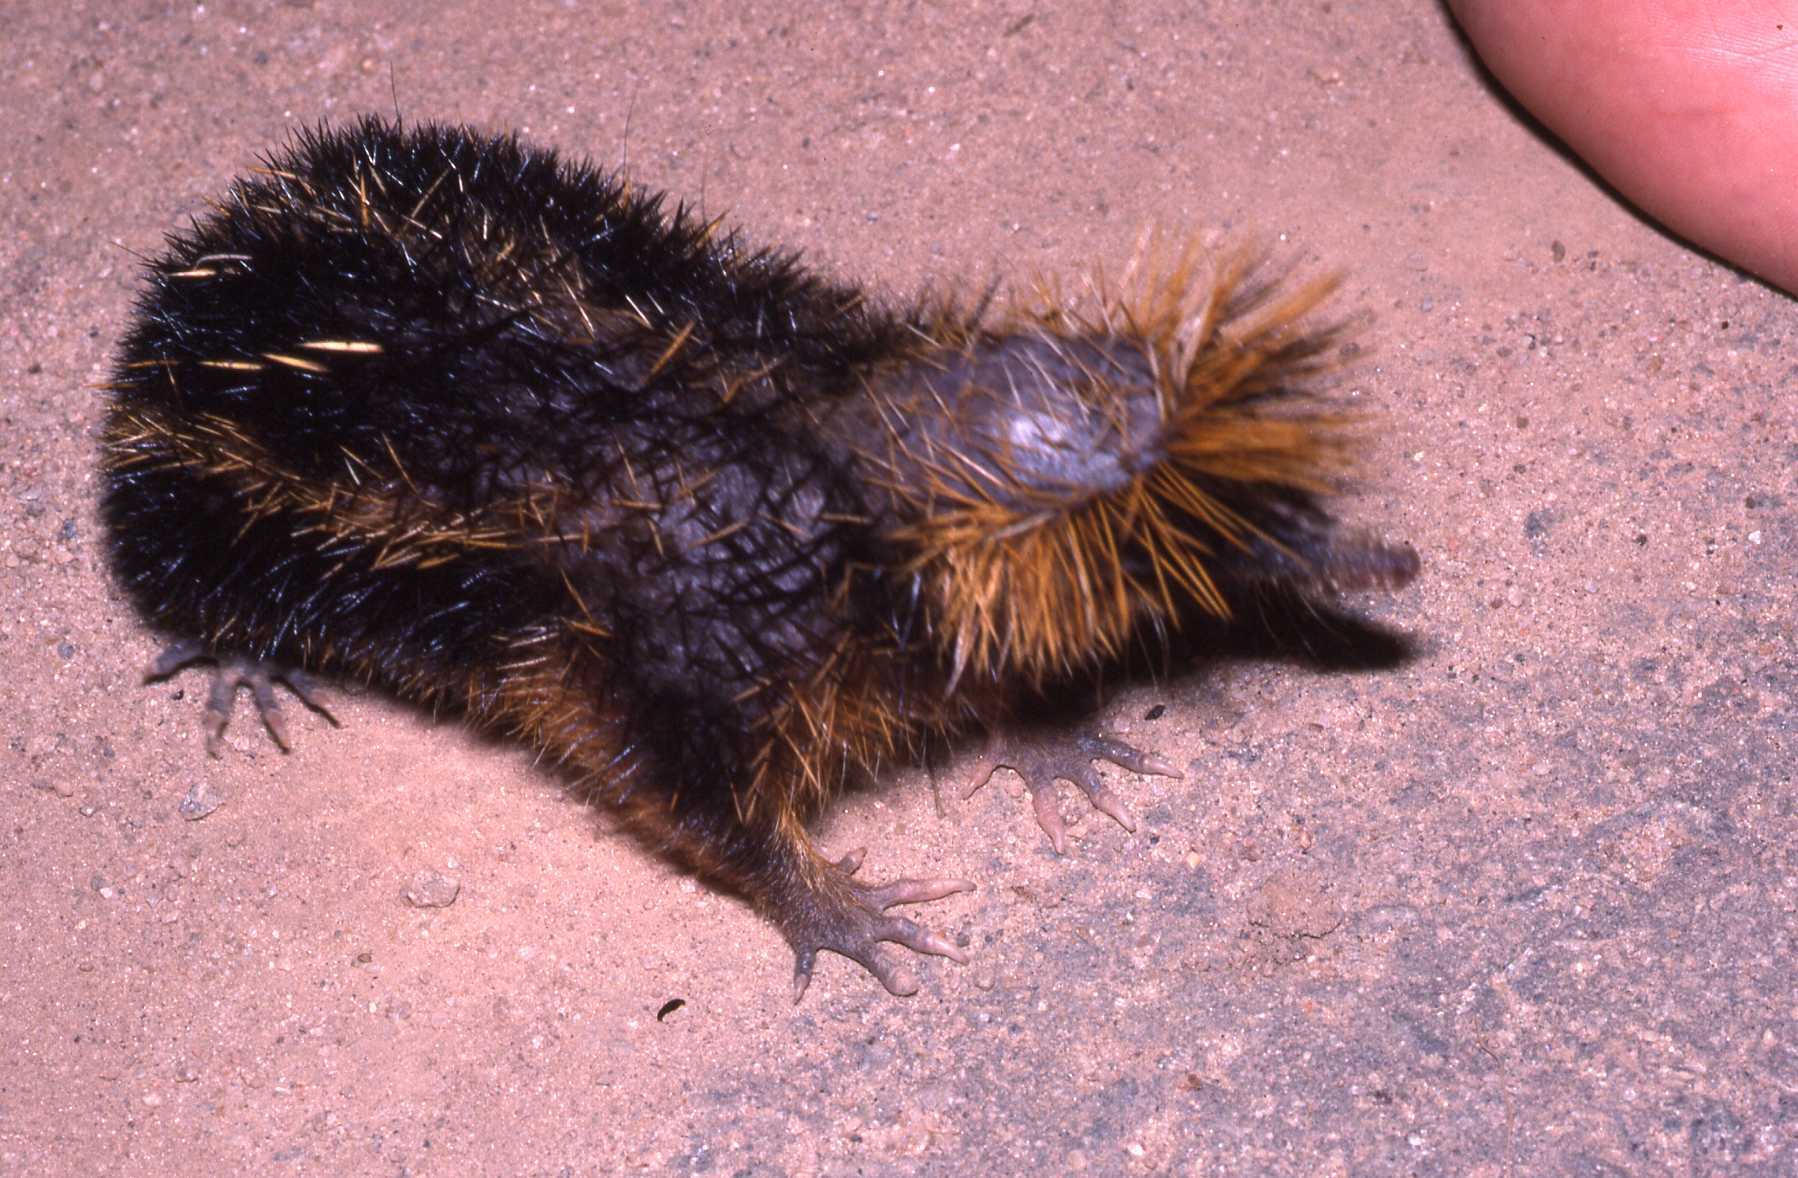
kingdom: Animalia
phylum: Chordata
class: Mammalia
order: Afrosoricida
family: Tenrecidae
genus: Hemicentetes
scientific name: Hemicentetes semispinosus
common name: Lowland streaked tenrec
